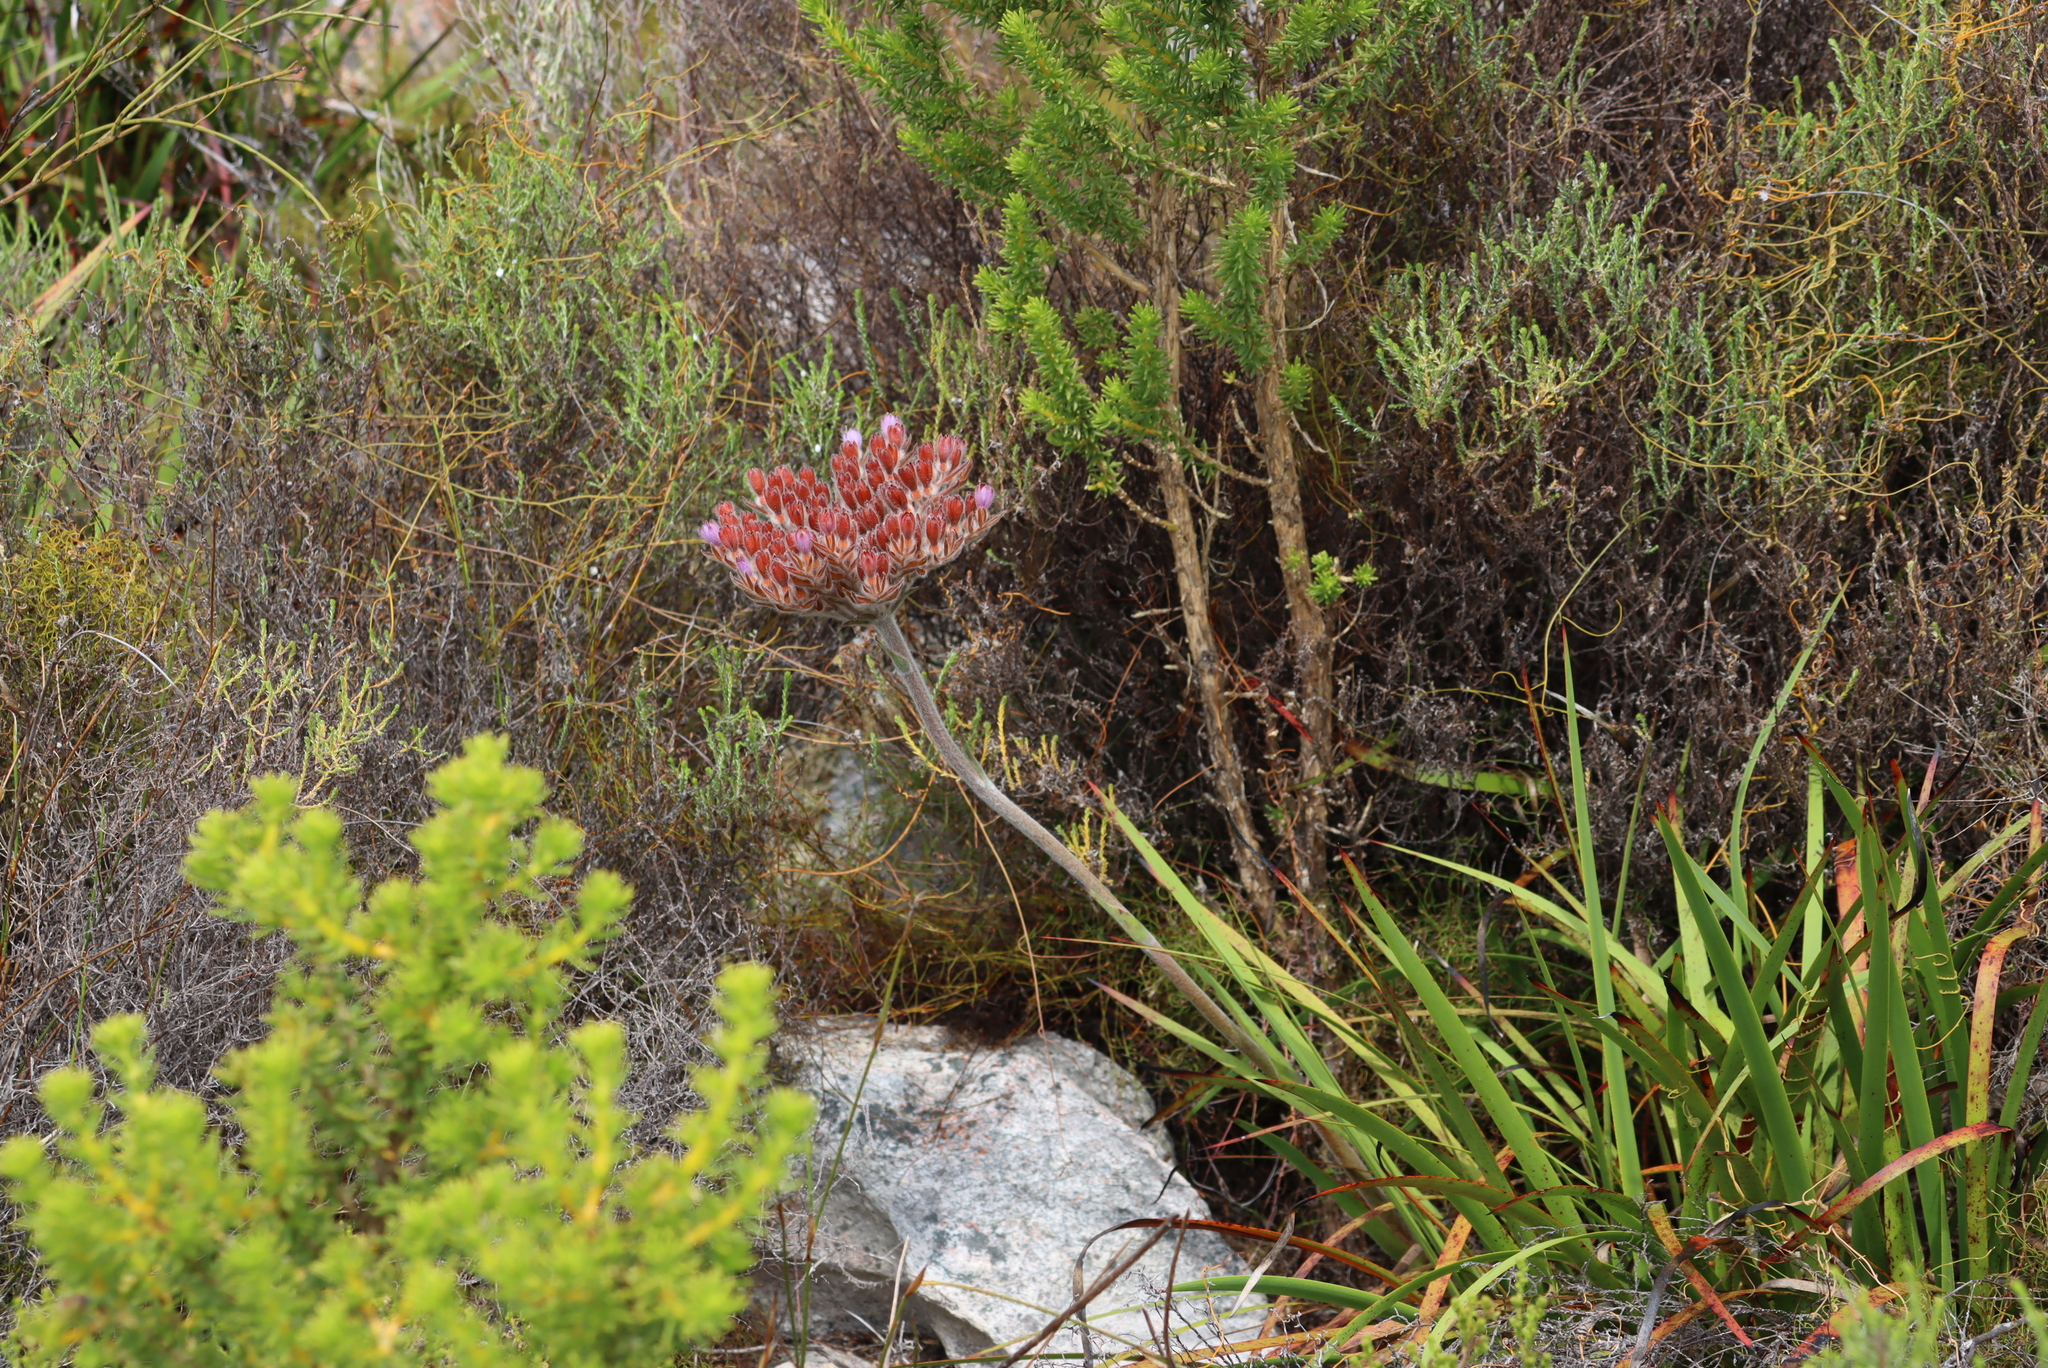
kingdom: Plantae
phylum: Tracheophyta
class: Liliopsida
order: Commelinales
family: Haemodoraceae
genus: Dilatris
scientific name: Dilatris corymbosa
